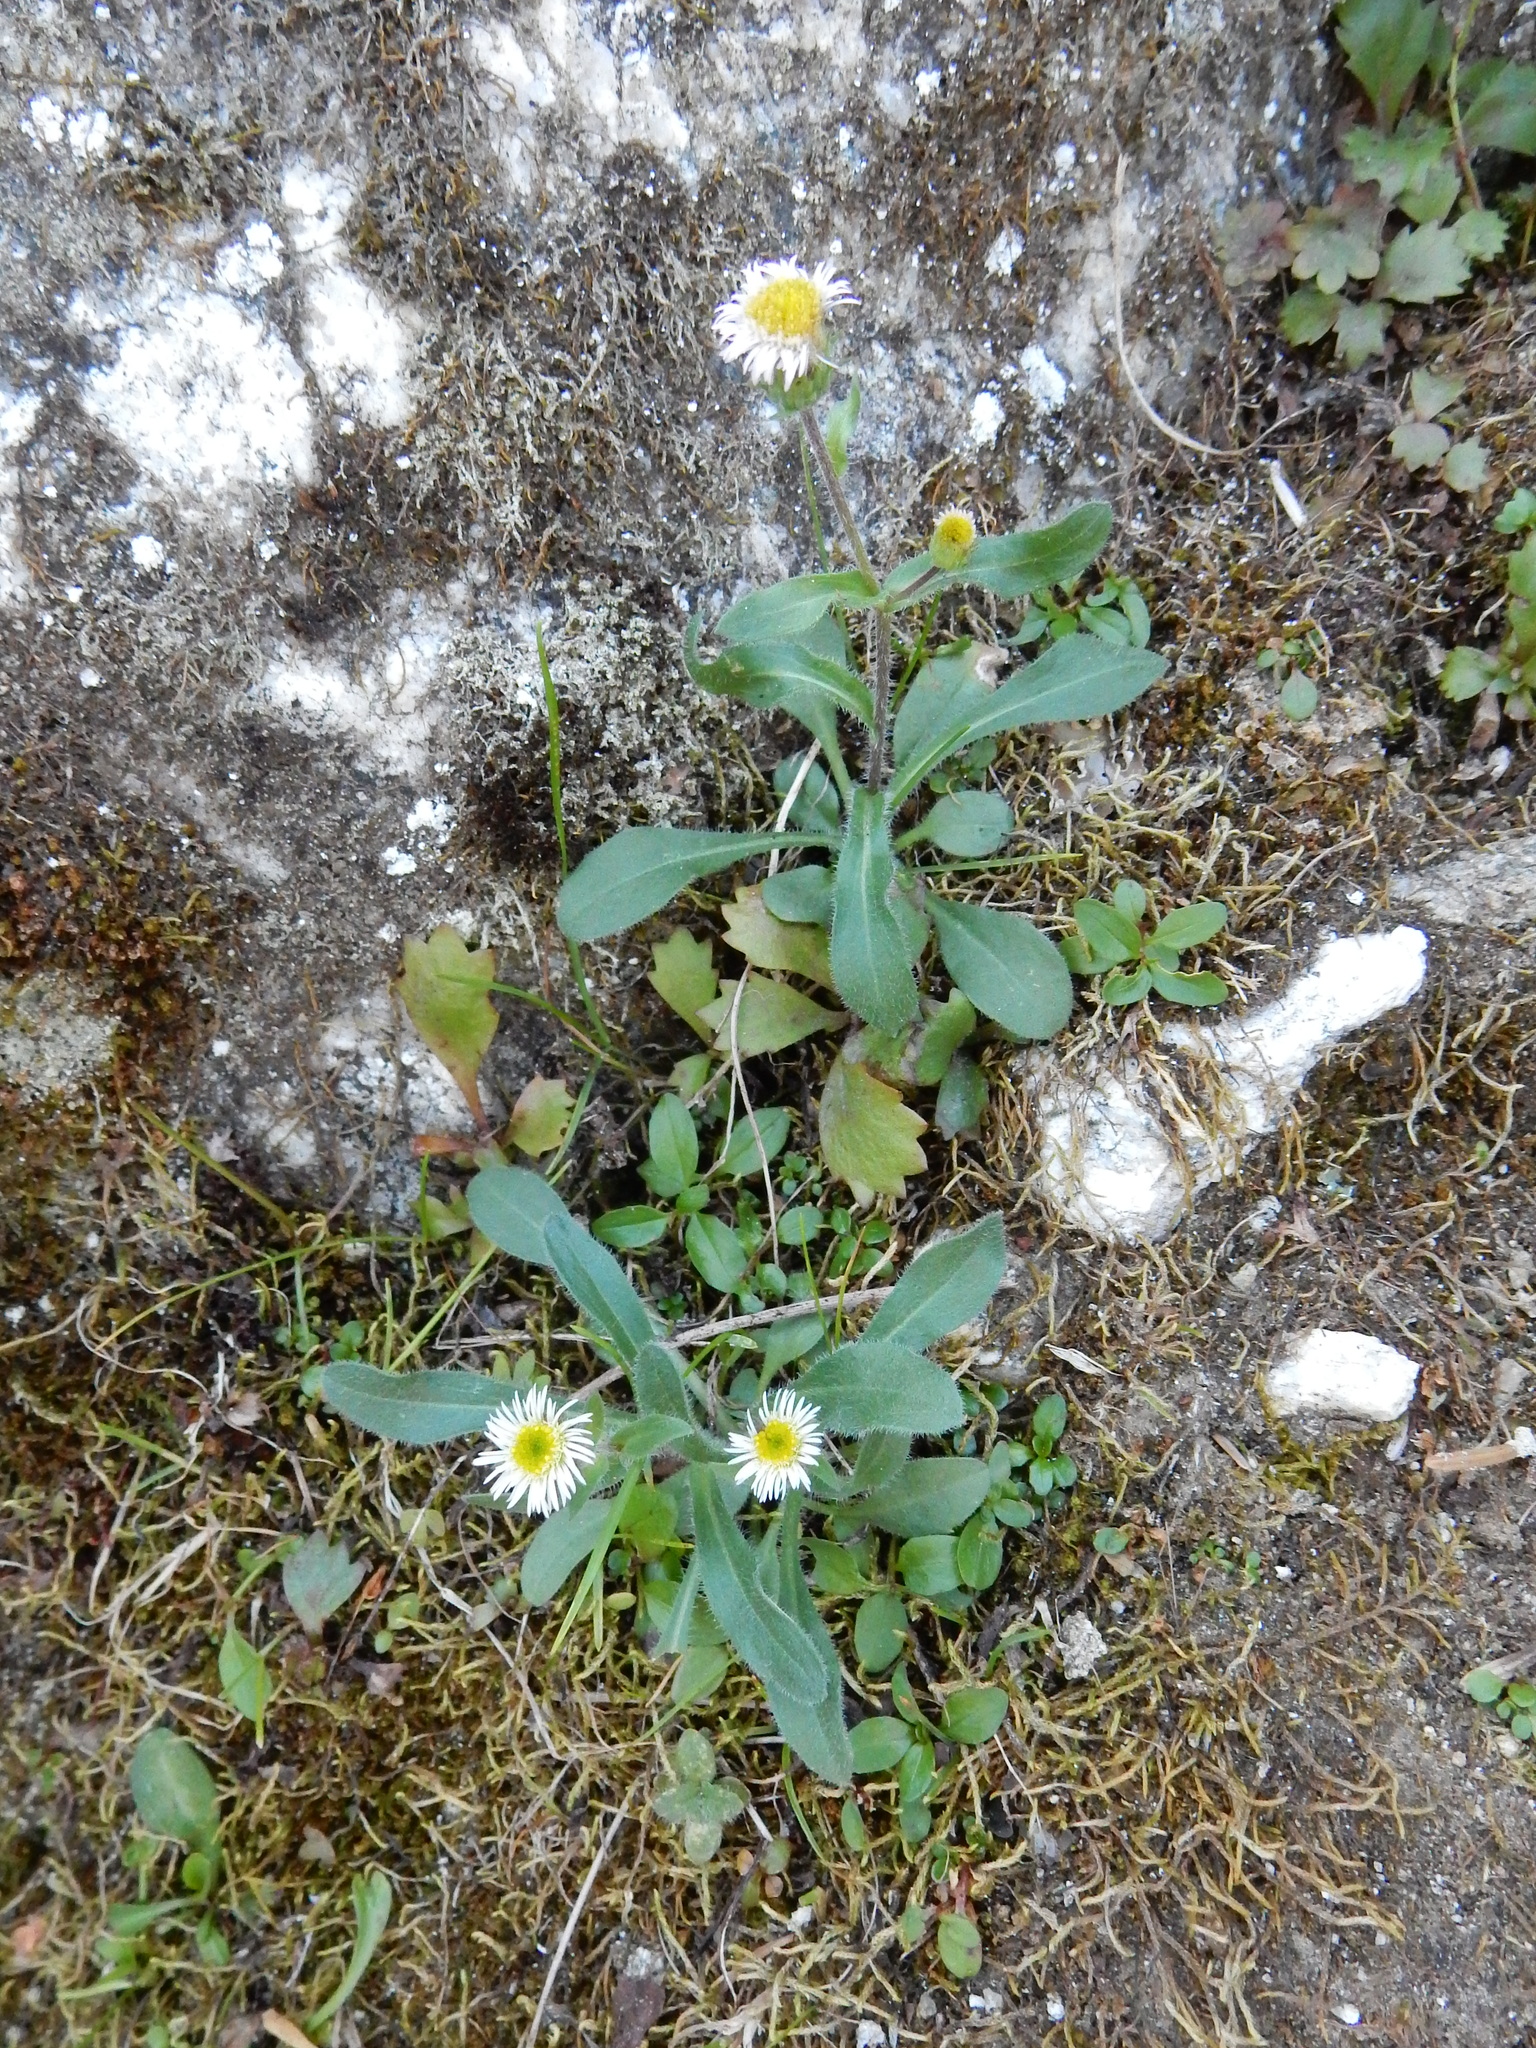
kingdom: Plantae
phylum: Tracheophyta
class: Magnoliopsida
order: Asterales
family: Asteraceae
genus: Erigeron
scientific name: Erigeron nivalis
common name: Snow fleabane
